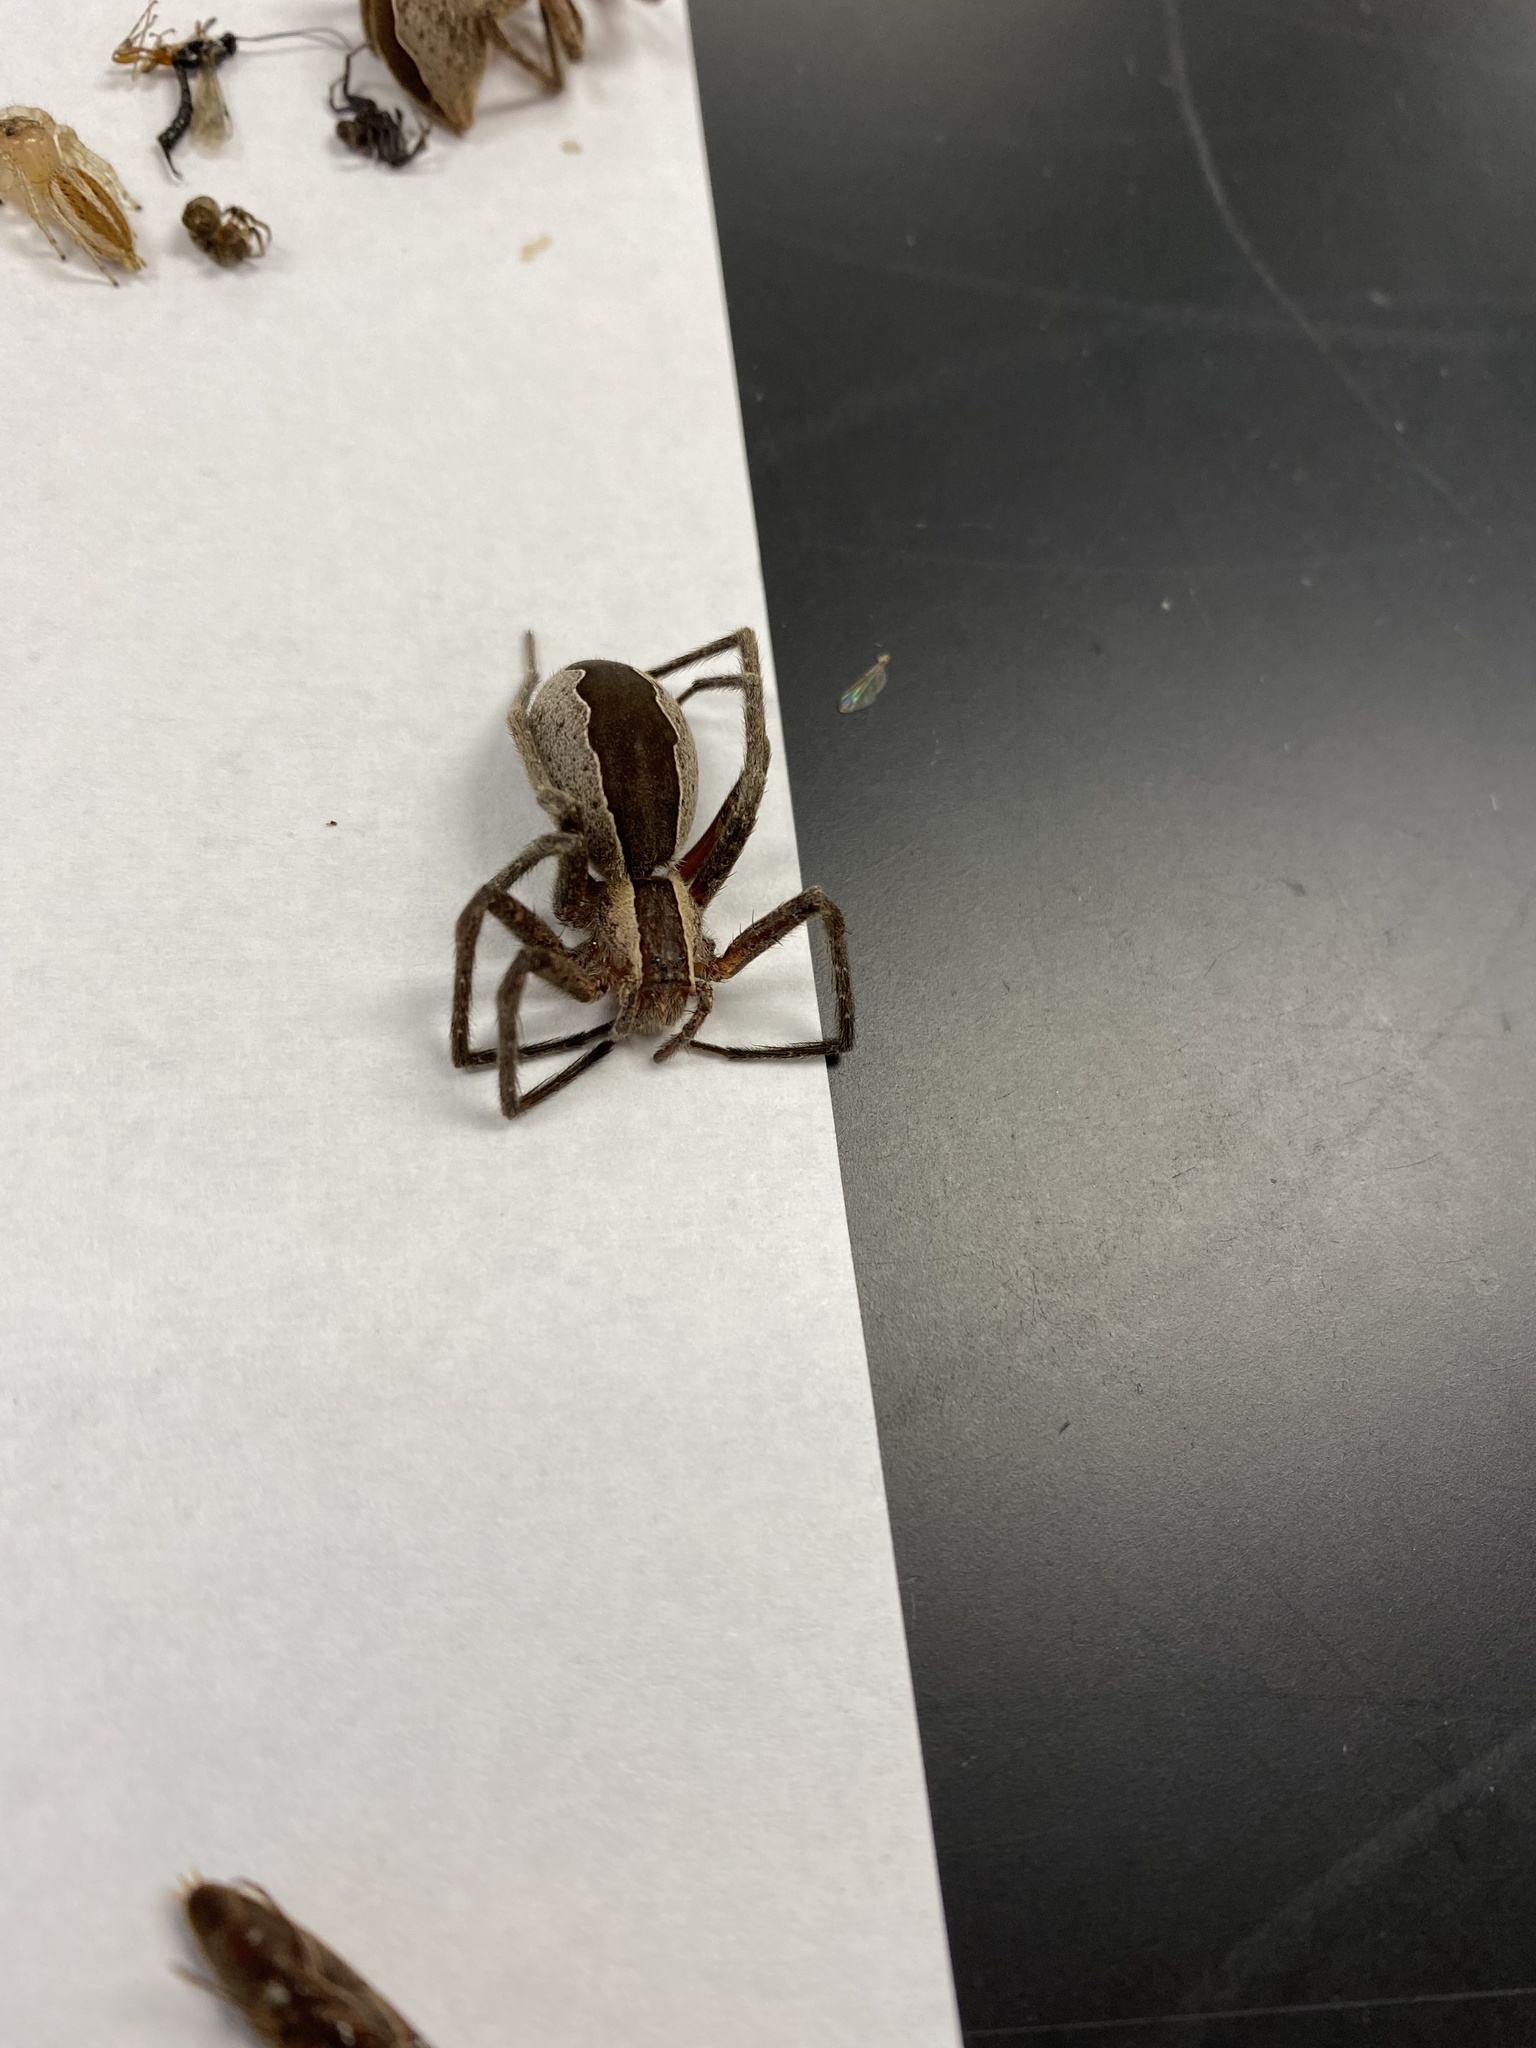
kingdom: Animalia
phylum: Arthropoda
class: Arachnida
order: Araneae
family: Pisauridae
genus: Pisaurina
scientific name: Pisaurina mira
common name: American nursery web spider
